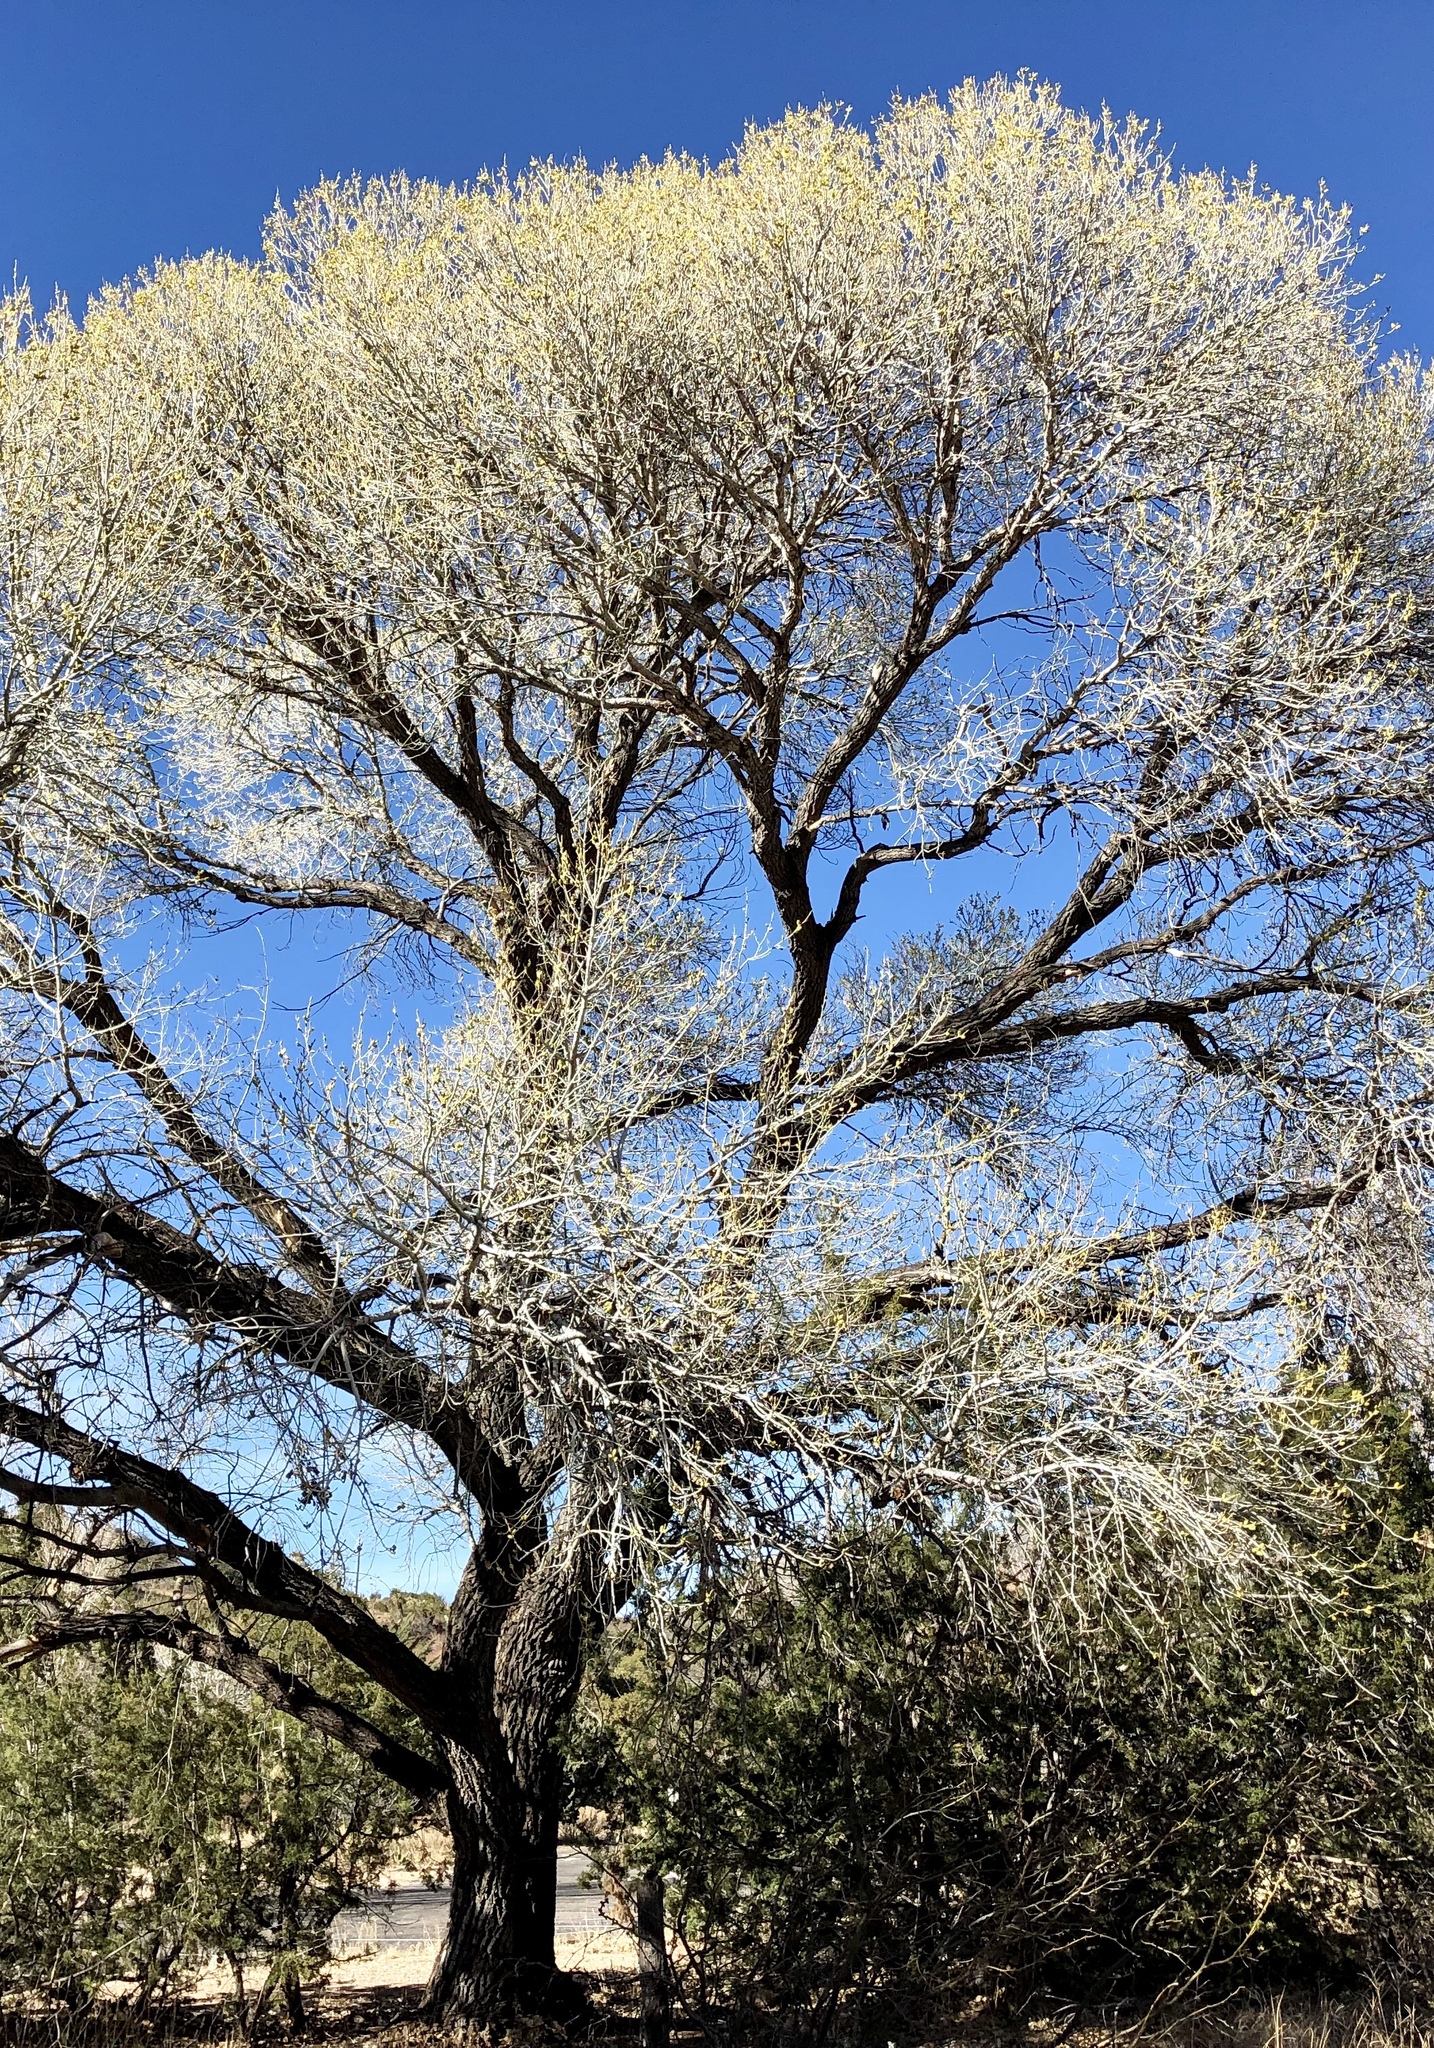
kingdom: Plantae
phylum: Tracheophyta
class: Magnoliopsida
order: Malpighiales
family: Salicaceae
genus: Populus
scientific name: Populus fremontii
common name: Fremont's cottonwood
